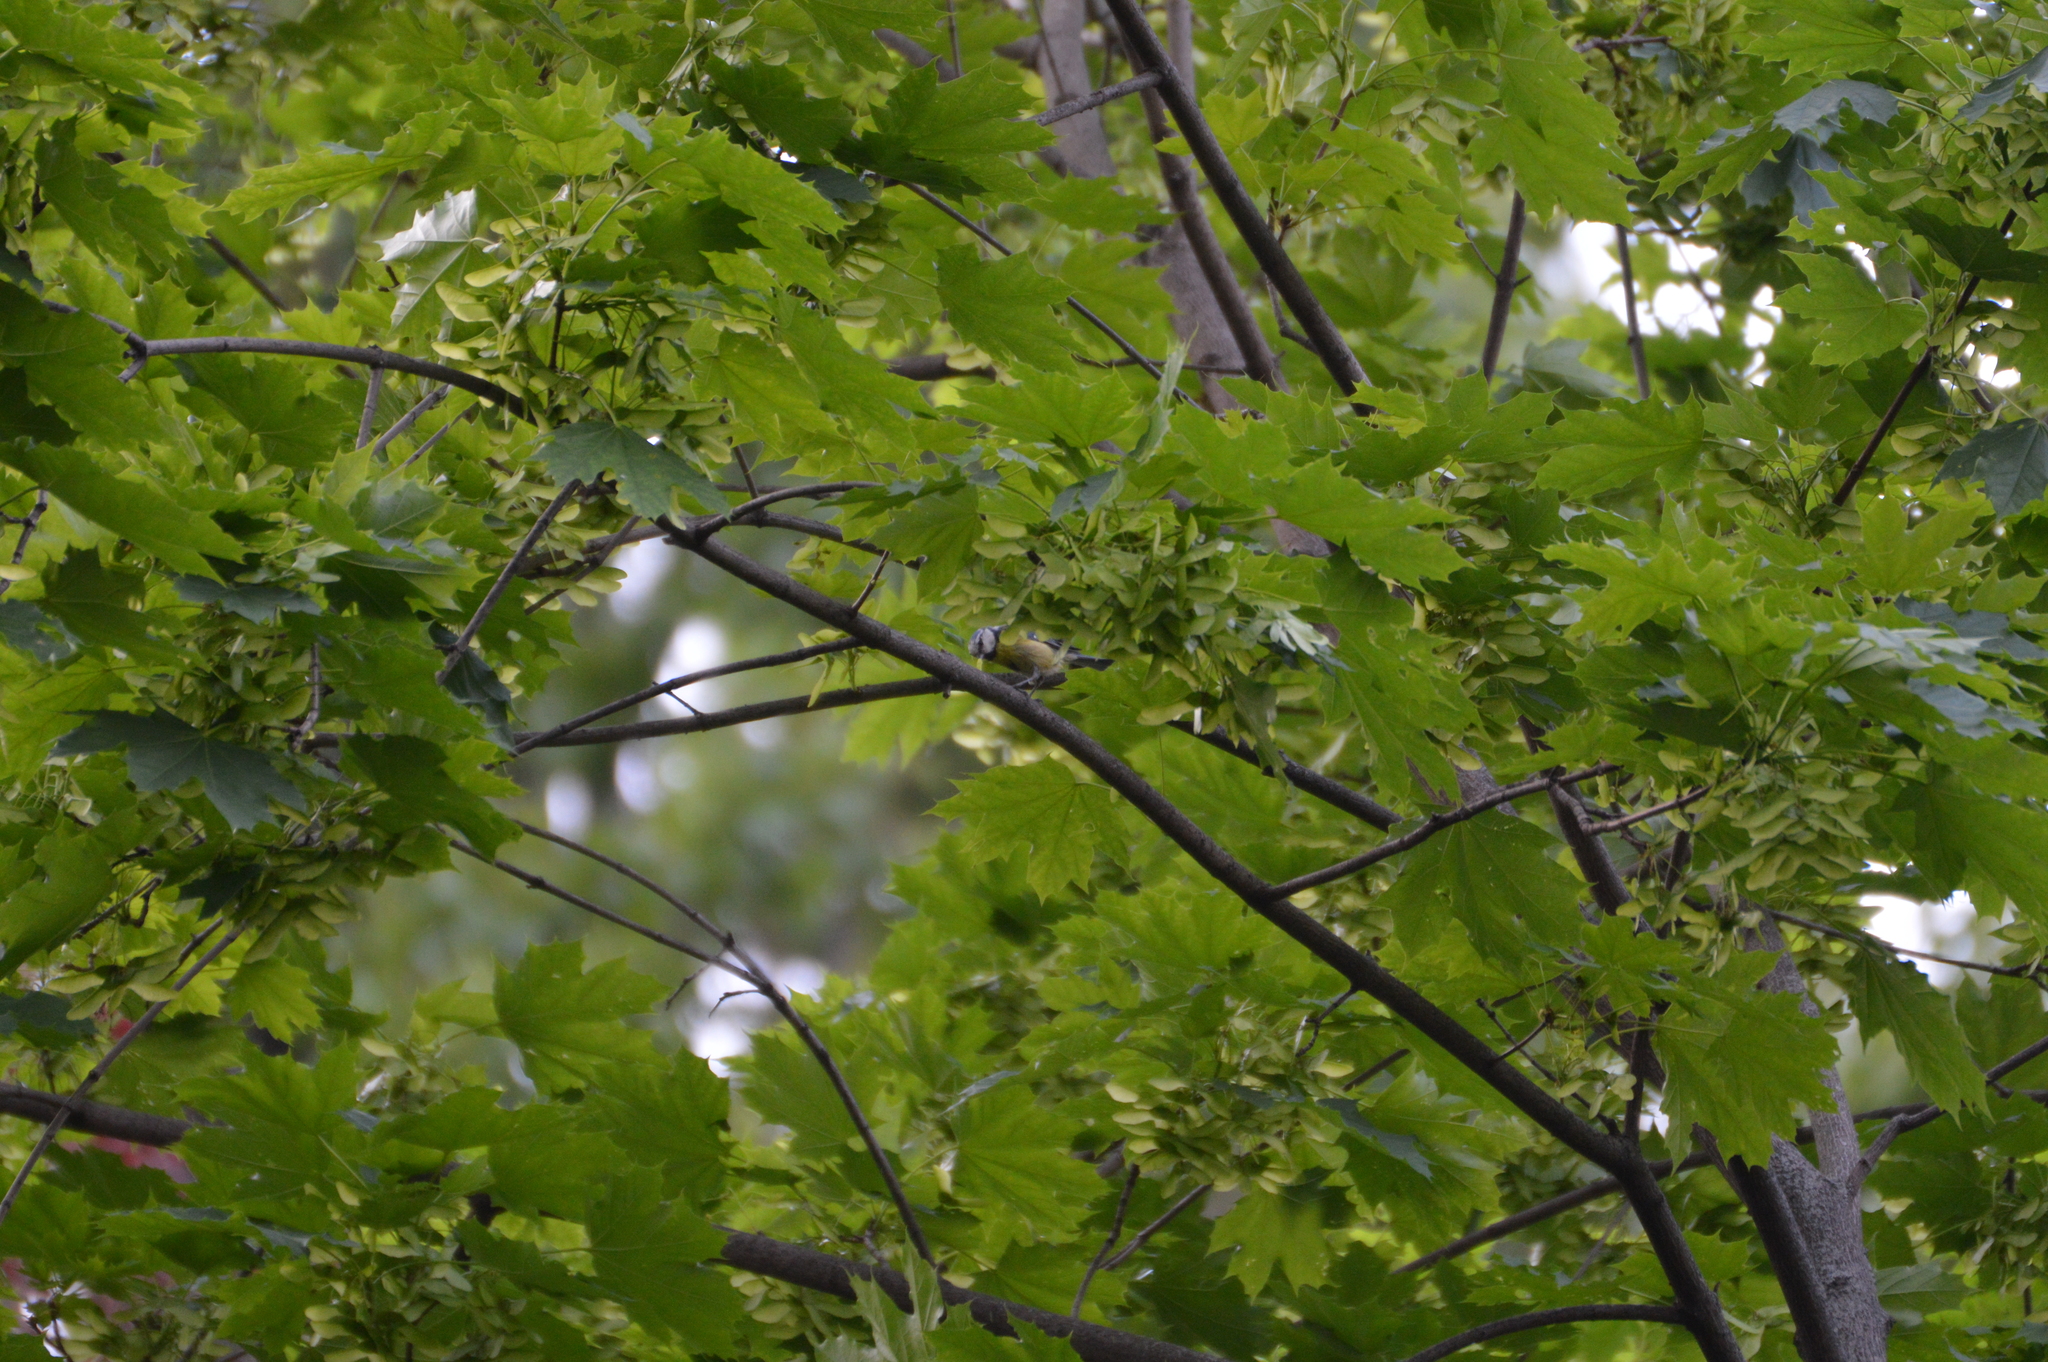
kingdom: Animalia
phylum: Chordata
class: Aves
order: Passeriformes
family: Paridae
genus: Cyanistes
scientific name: Cyanistes caeruleus
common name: Eurasian blue tit
